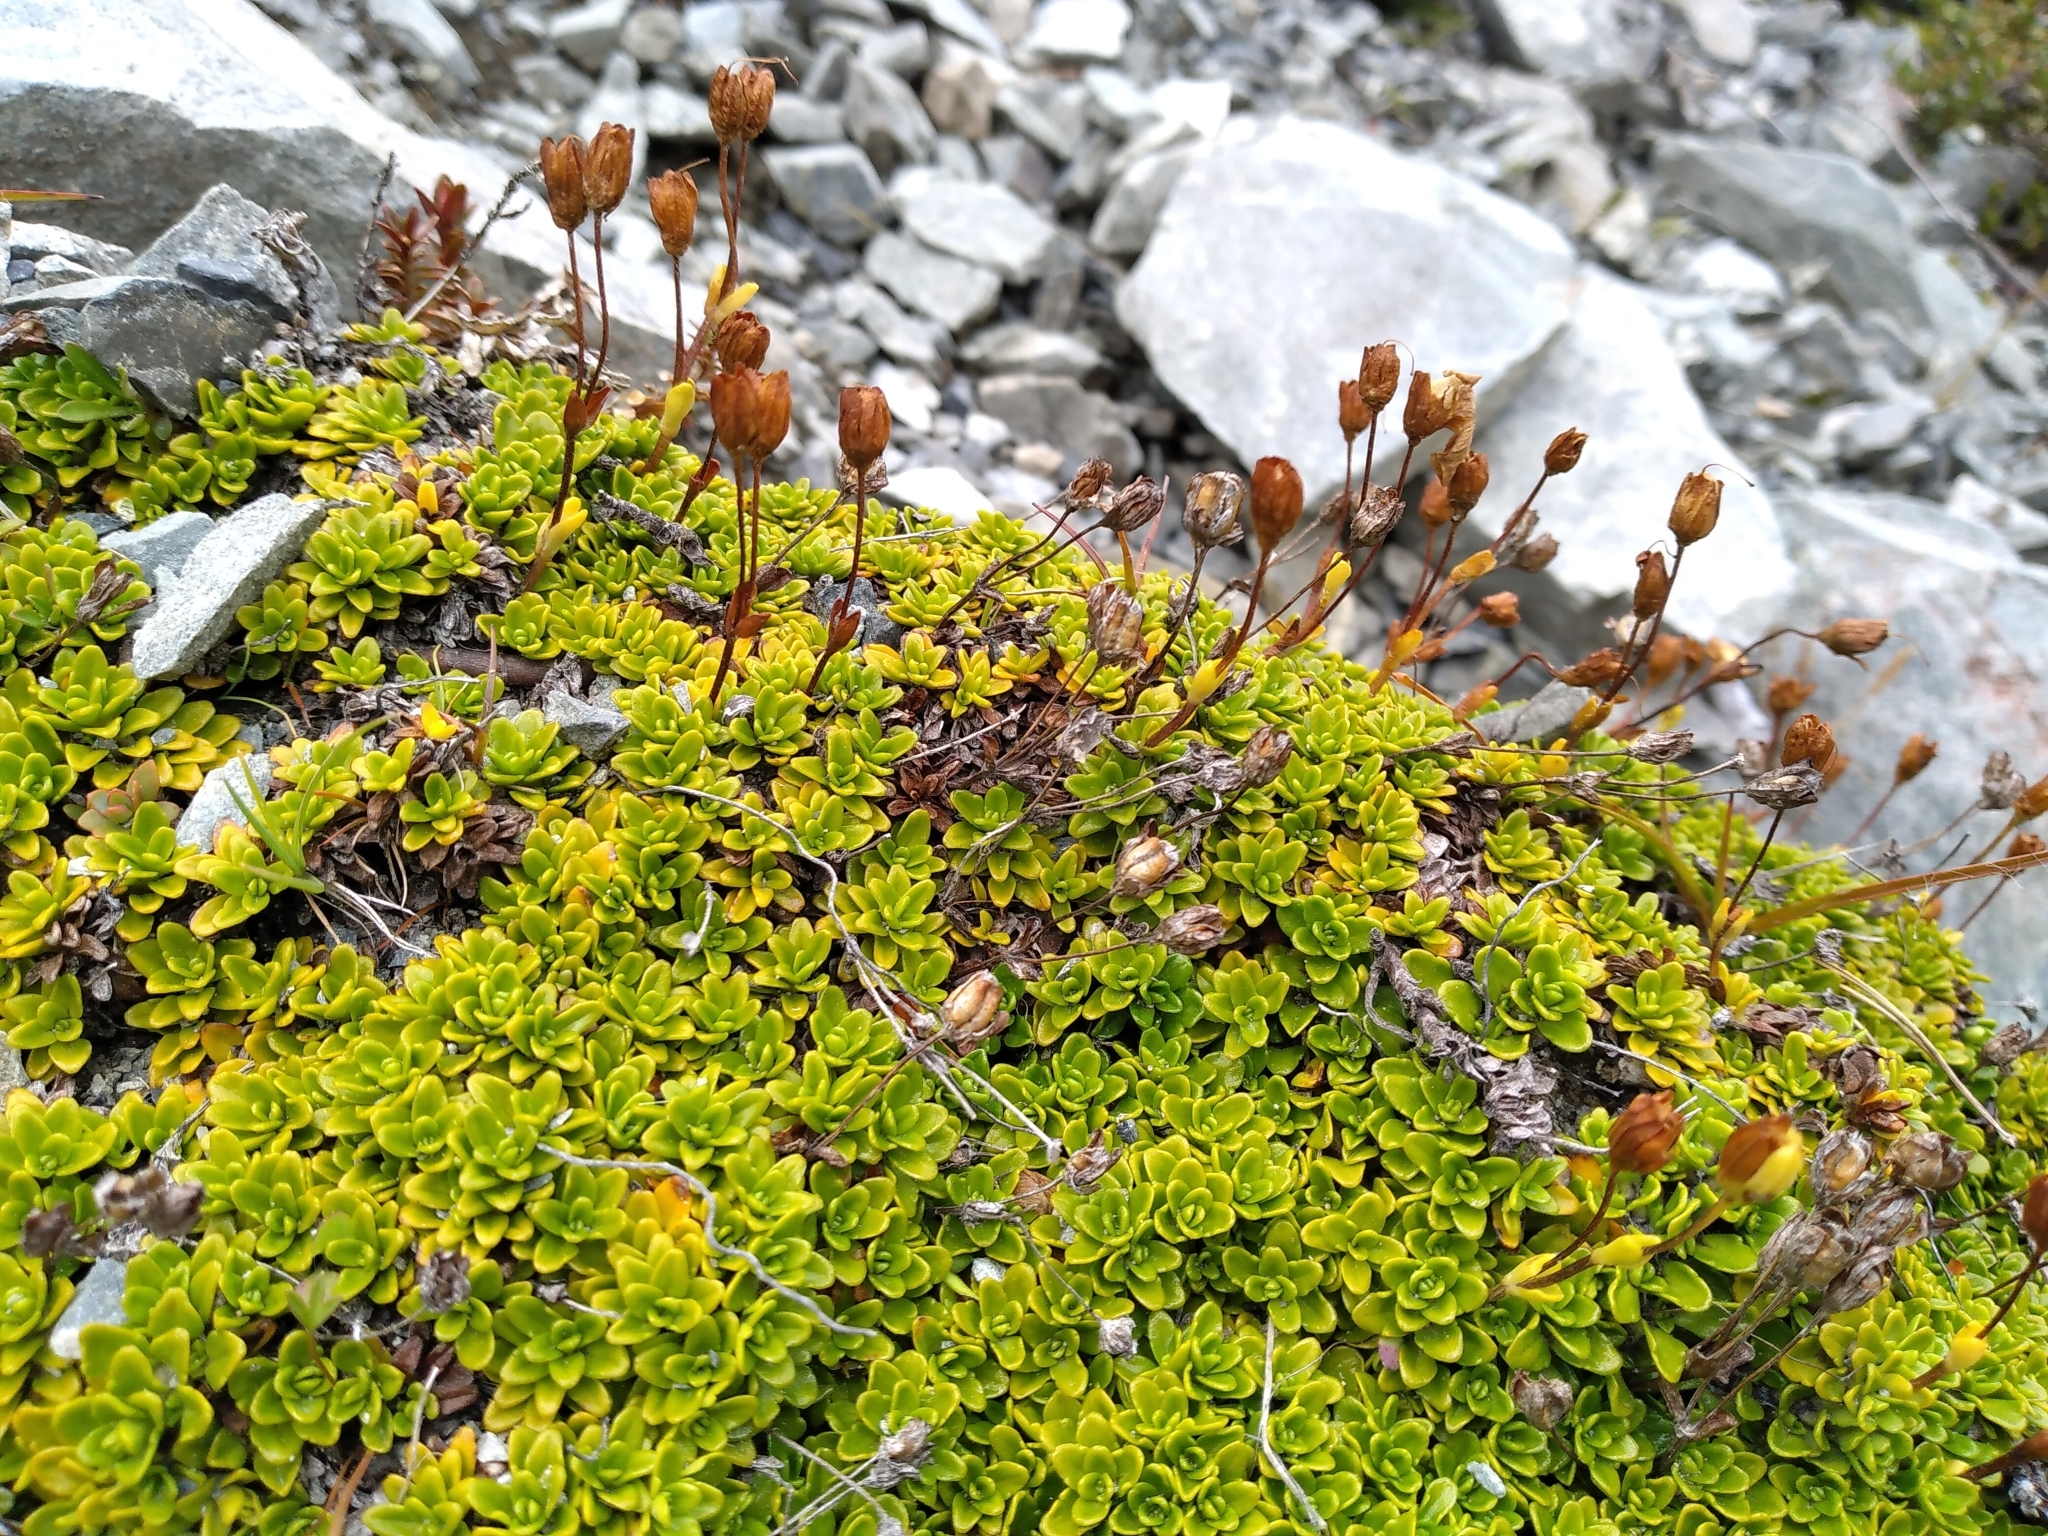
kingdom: Plantae
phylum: Tracheophyta
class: Magnoliopsida
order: Lamiales
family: Plantaginaceae
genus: Ourisia
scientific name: Ourisia caespitosa
